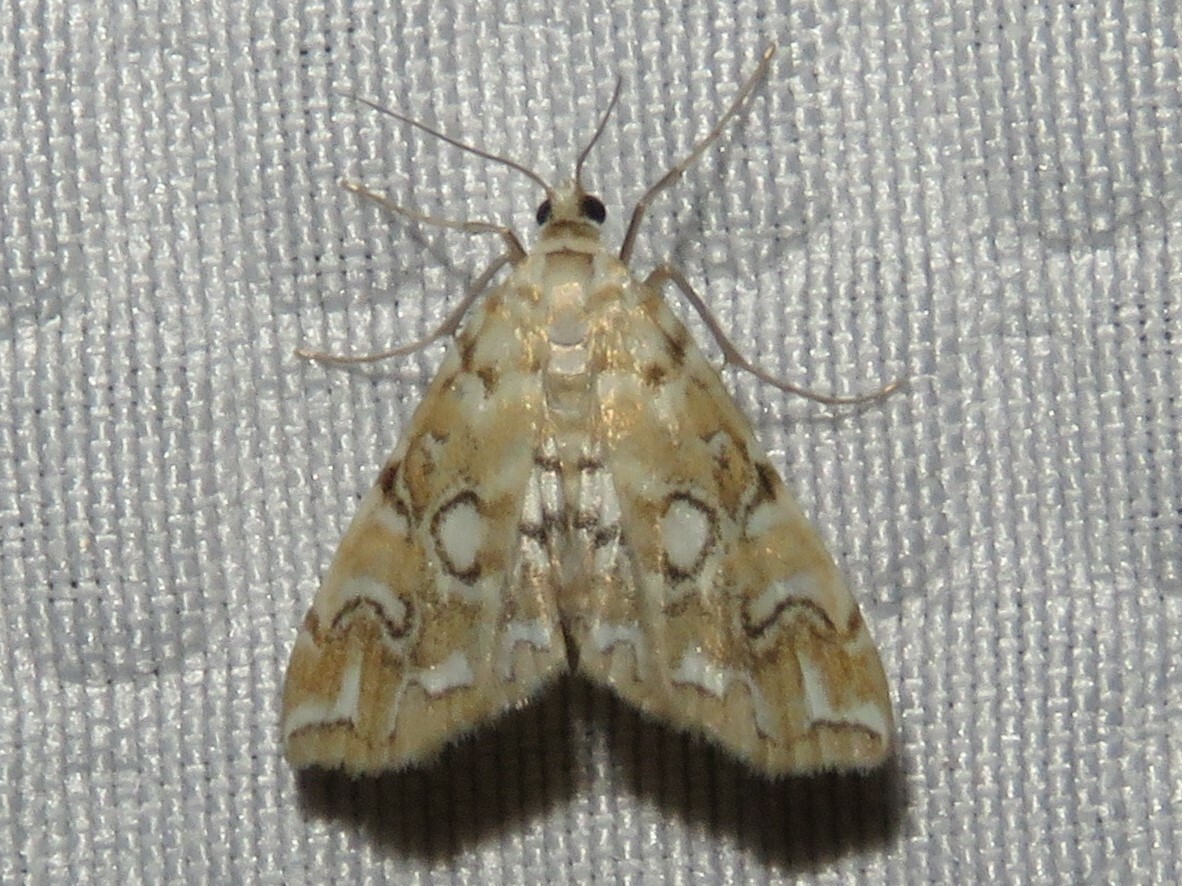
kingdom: Animalia
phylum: Arthropoda
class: Insecta
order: Lepidoptera
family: Crambidae
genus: Elophila
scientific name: Elophila icciusalis
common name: Pondside pyralid moth
